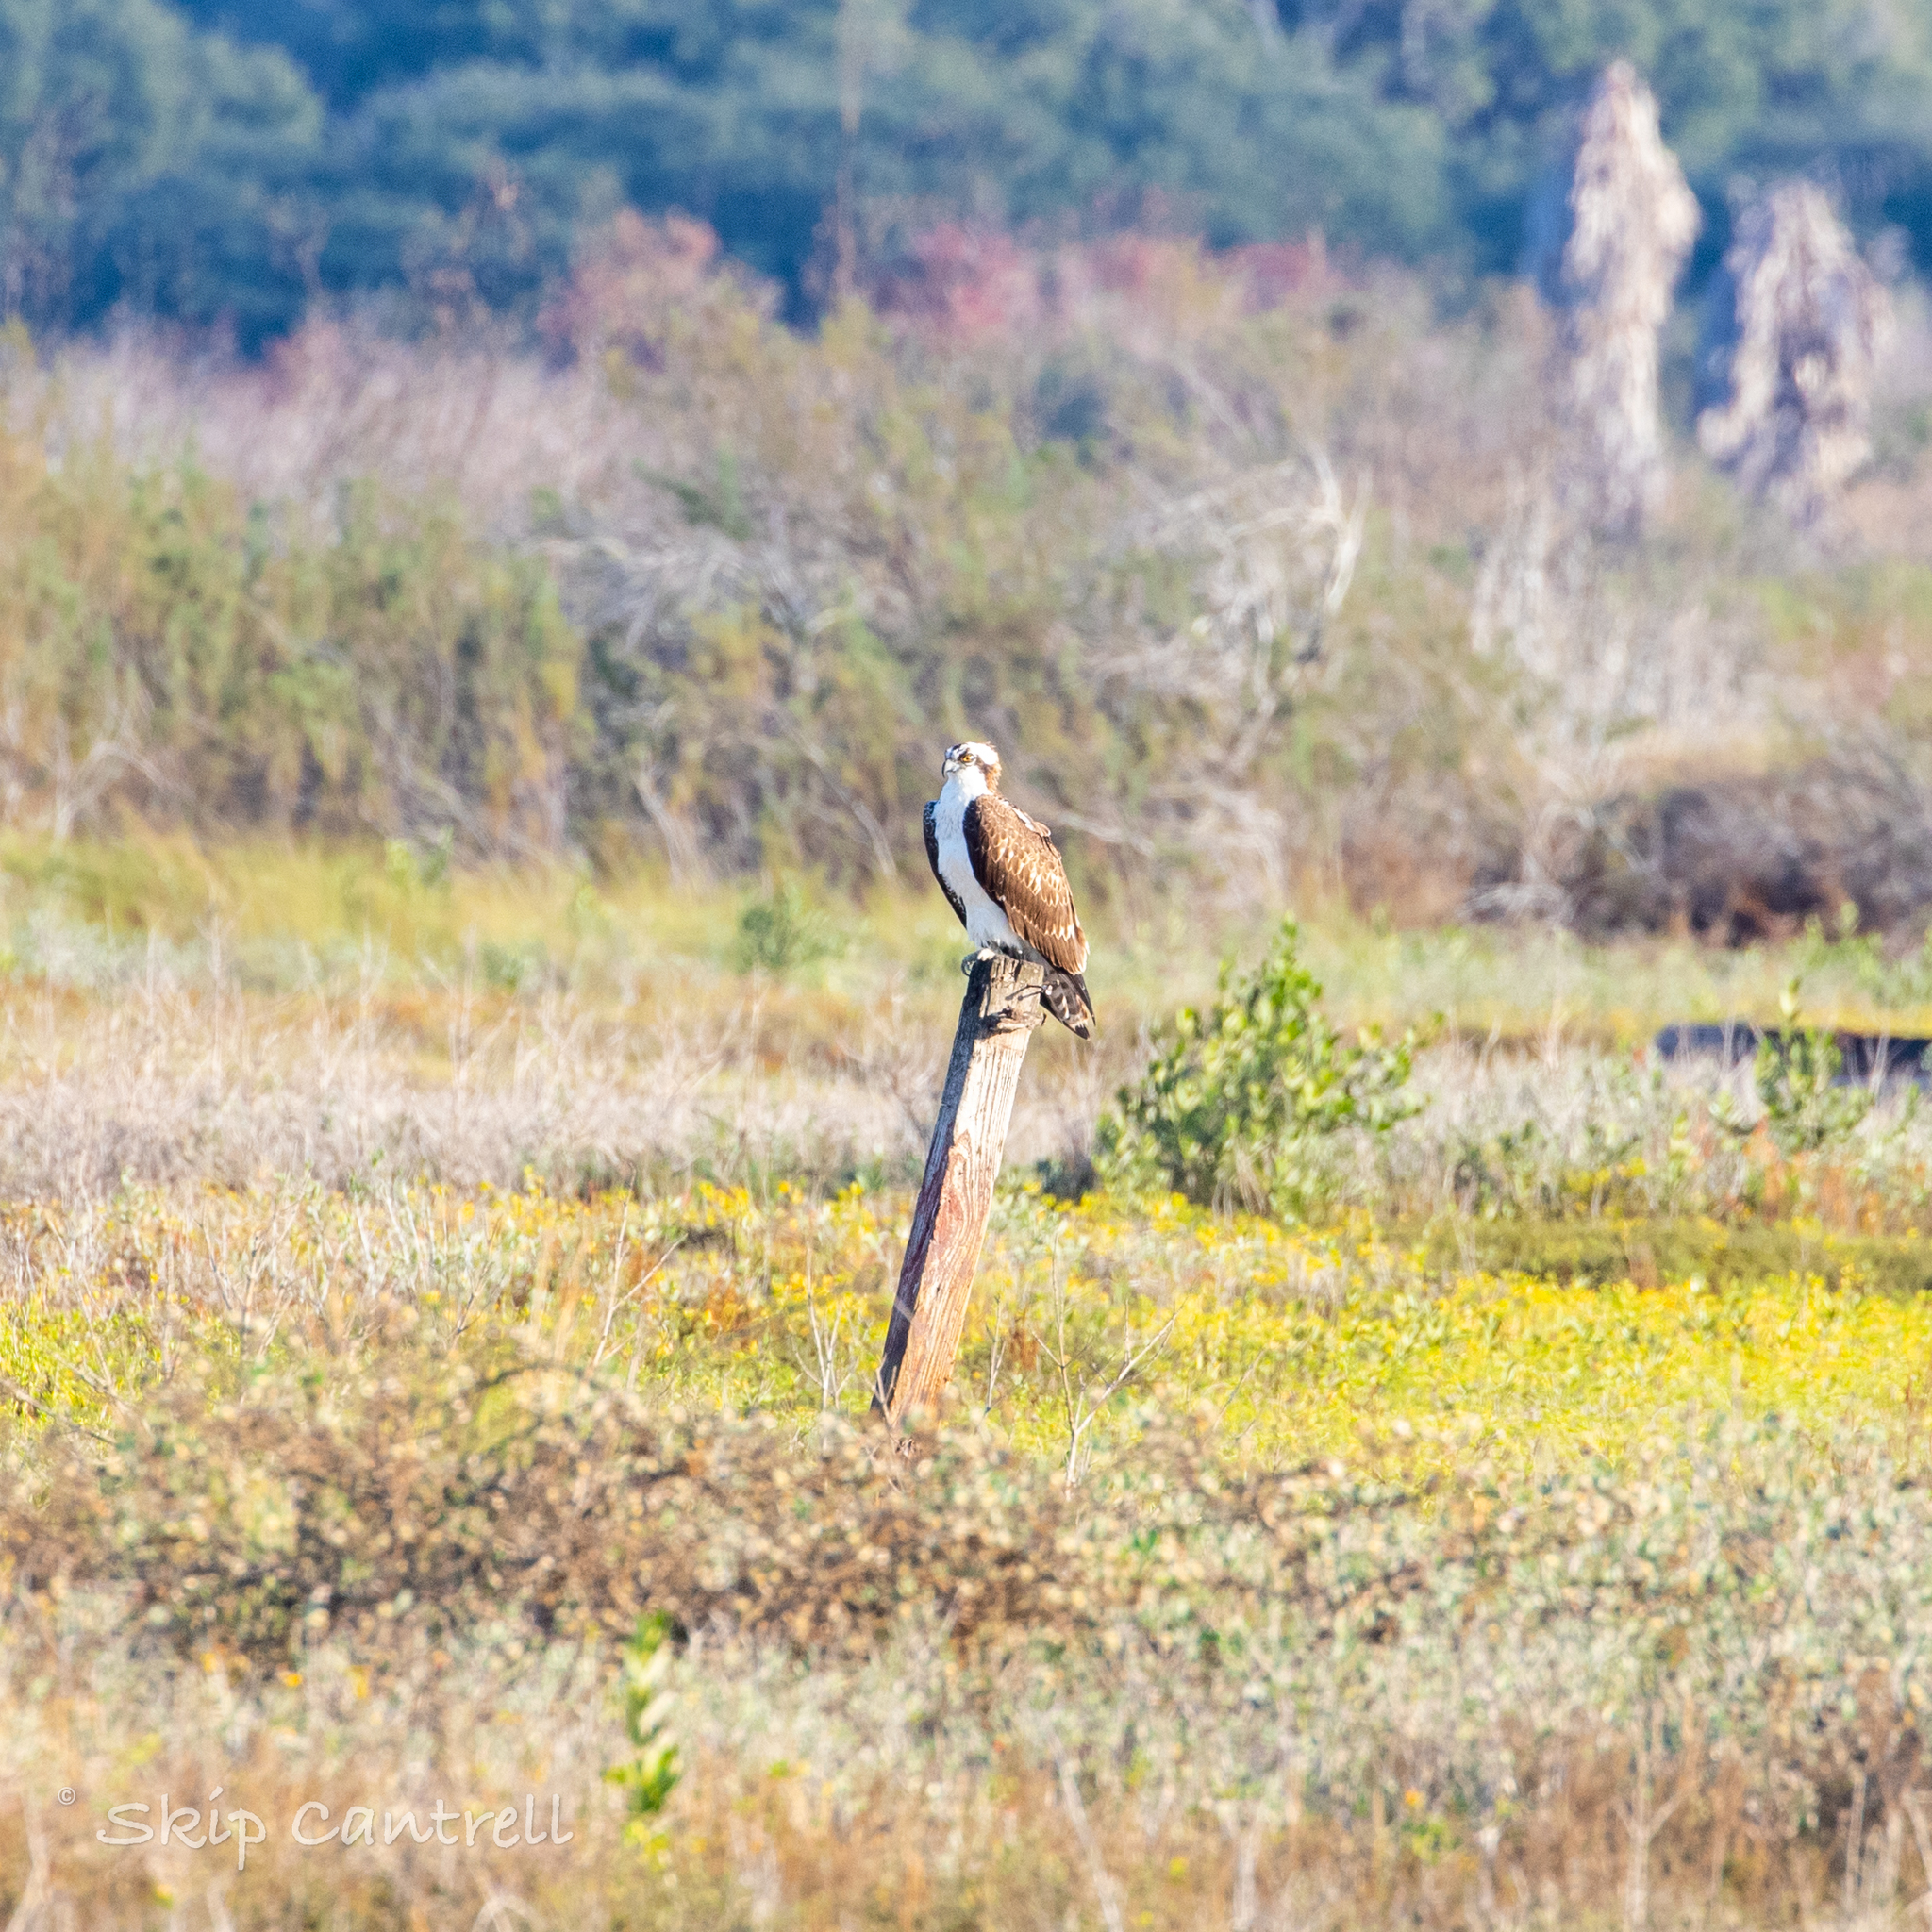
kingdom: Animalia
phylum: Chordata
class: Aves
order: Accipitriformes
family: Pandionidae
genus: Pandion
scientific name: Pandion haliaetus
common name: Osprey
